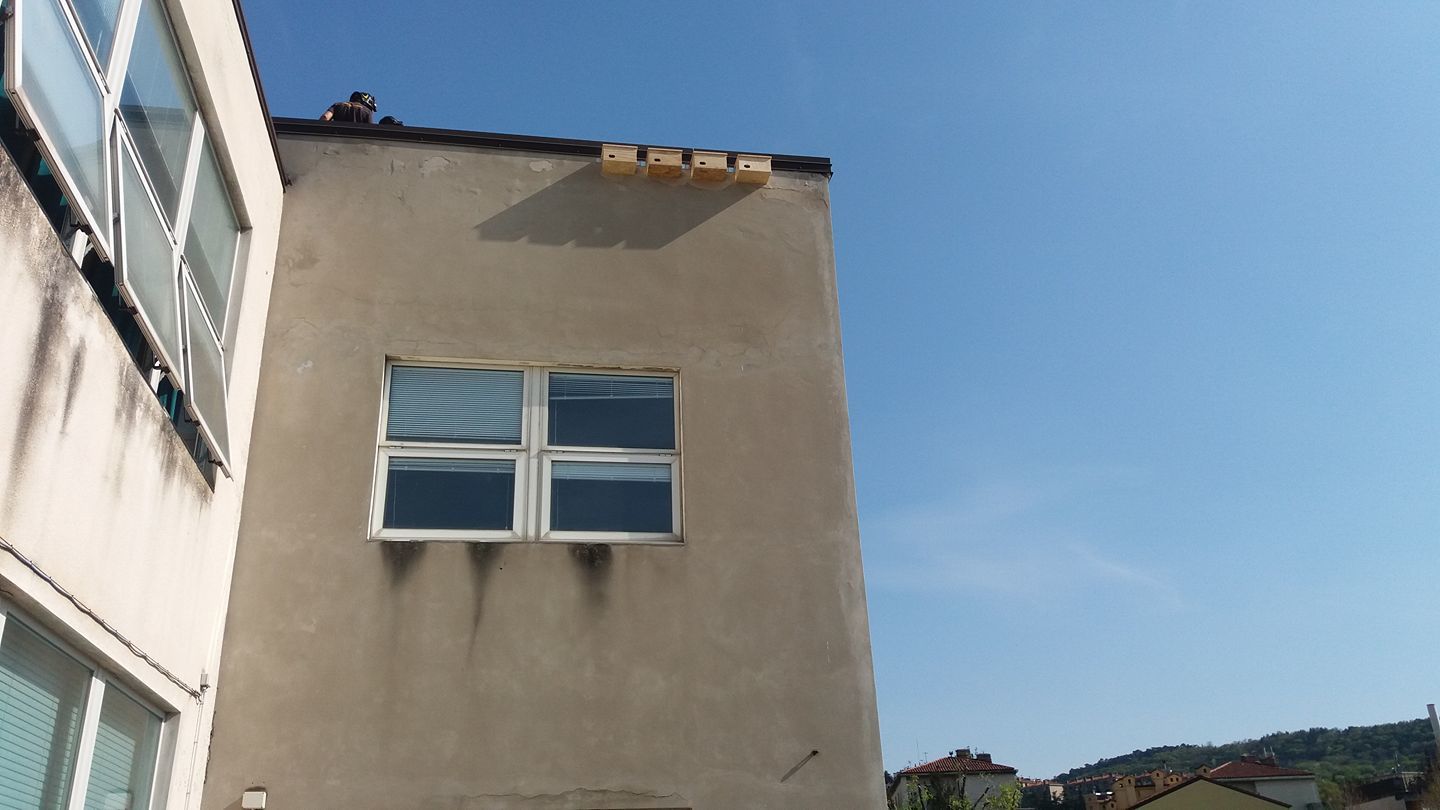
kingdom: Animalia
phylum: Chordata
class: Aves
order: Apodiformes
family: Apodidae
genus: Apus
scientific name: Apus apus
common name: Common swift
